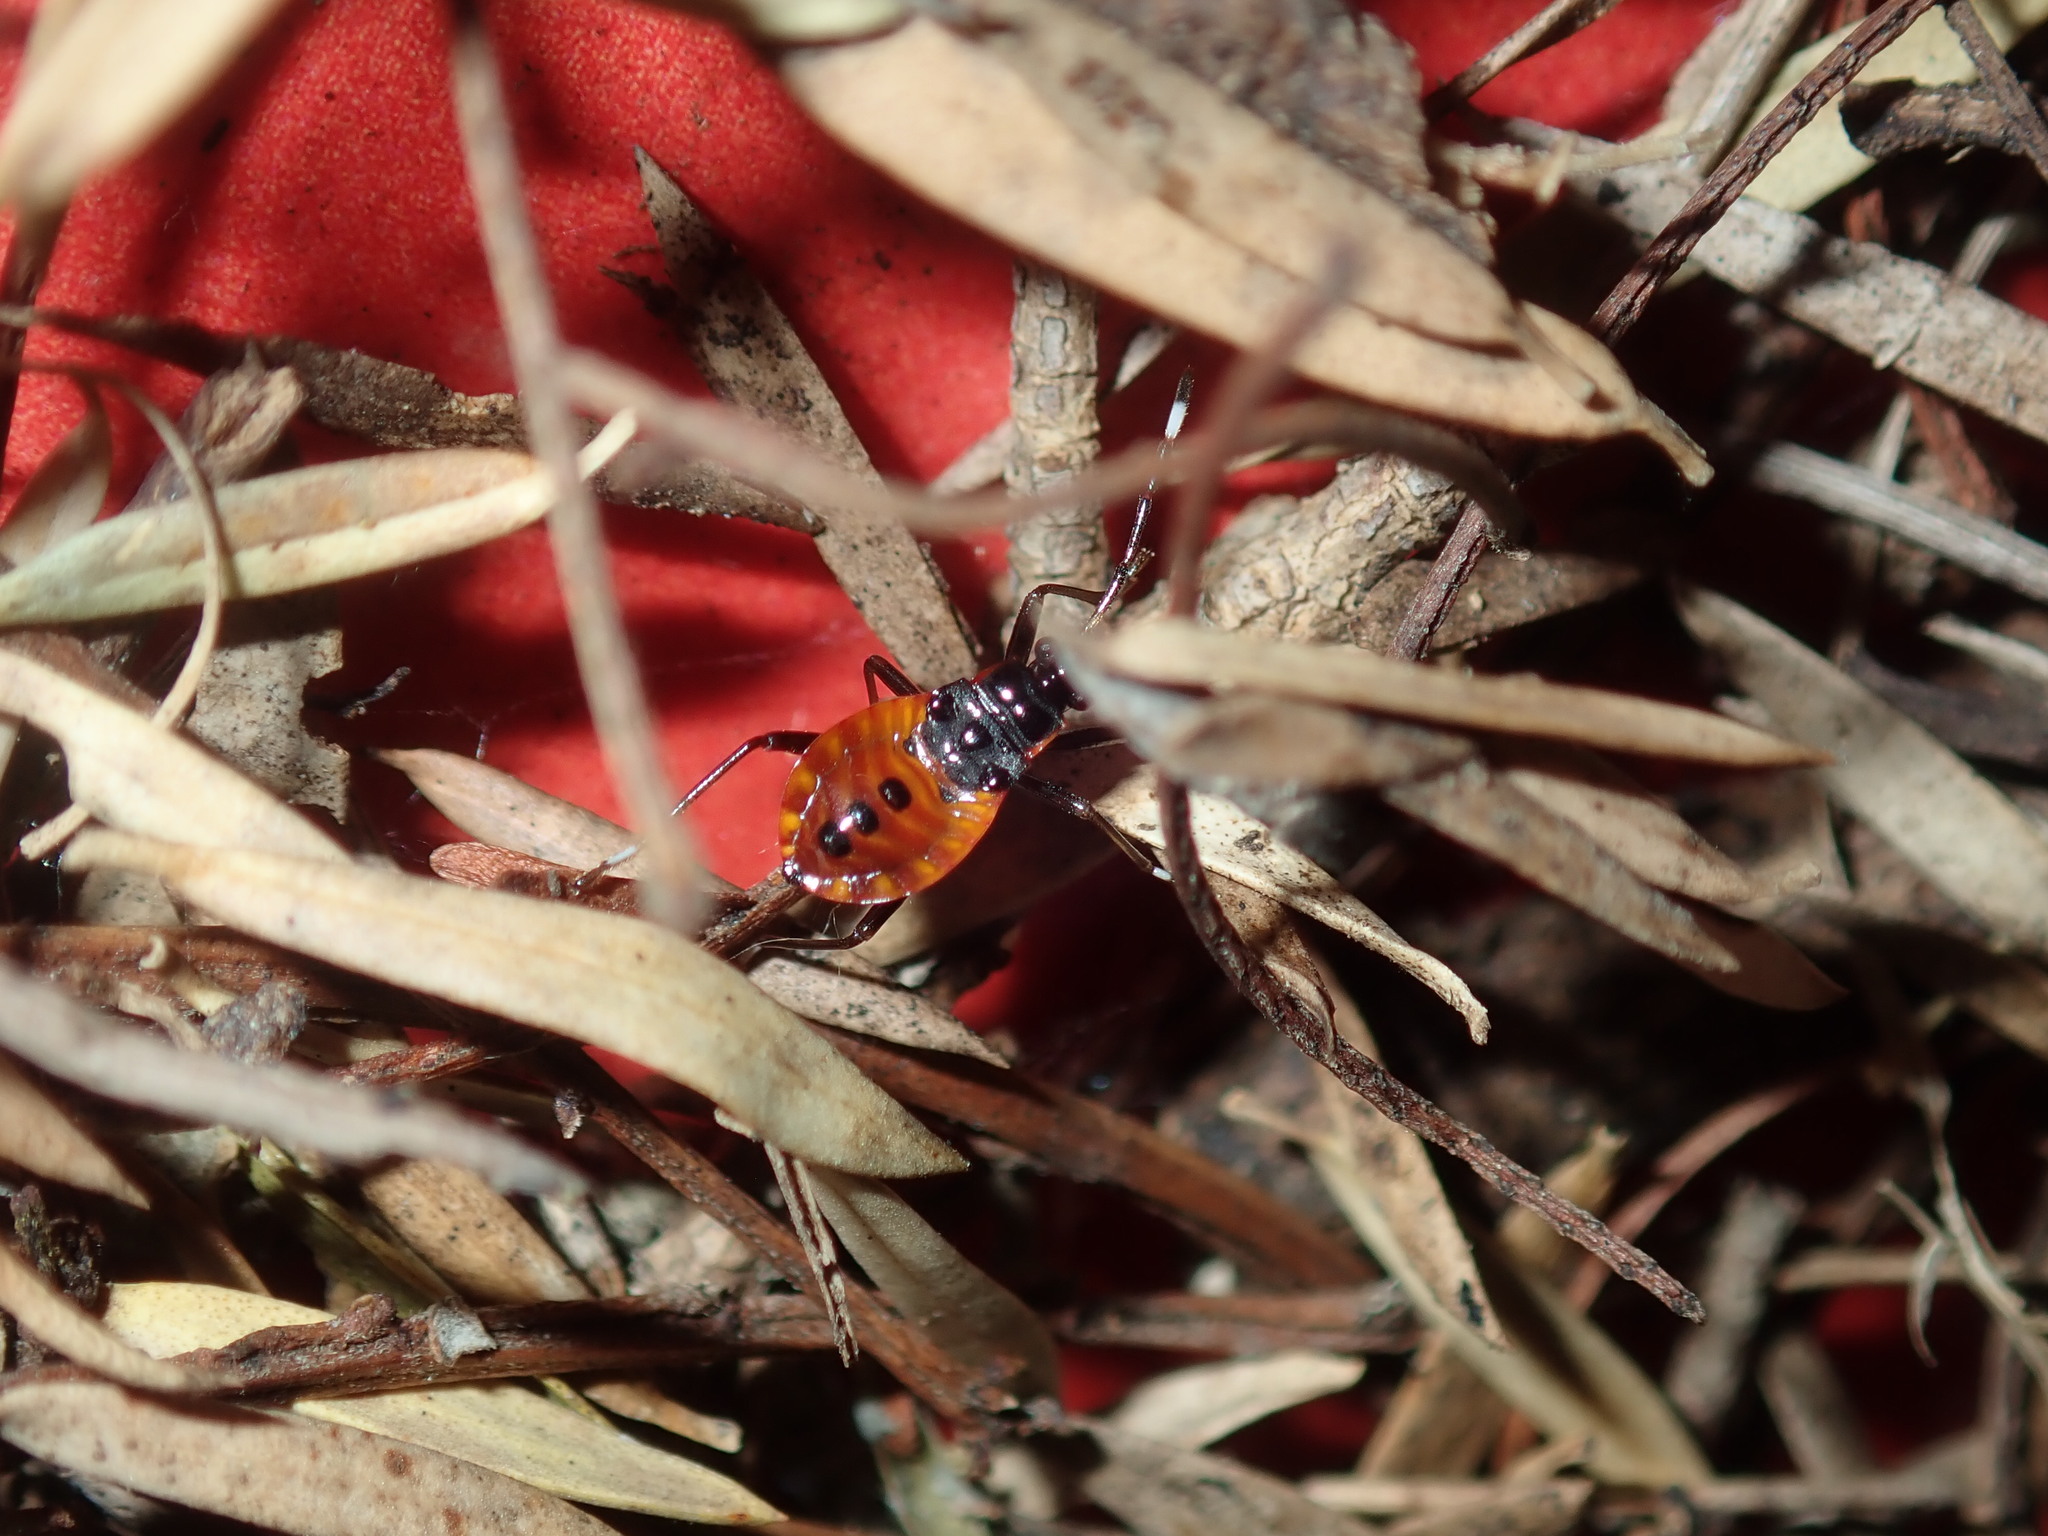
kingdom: Animalia
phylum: Arthropoda
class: Insecta
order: Hemiptera
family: Pyrrhocoridae
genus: Dindymus
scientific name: Dindymus
